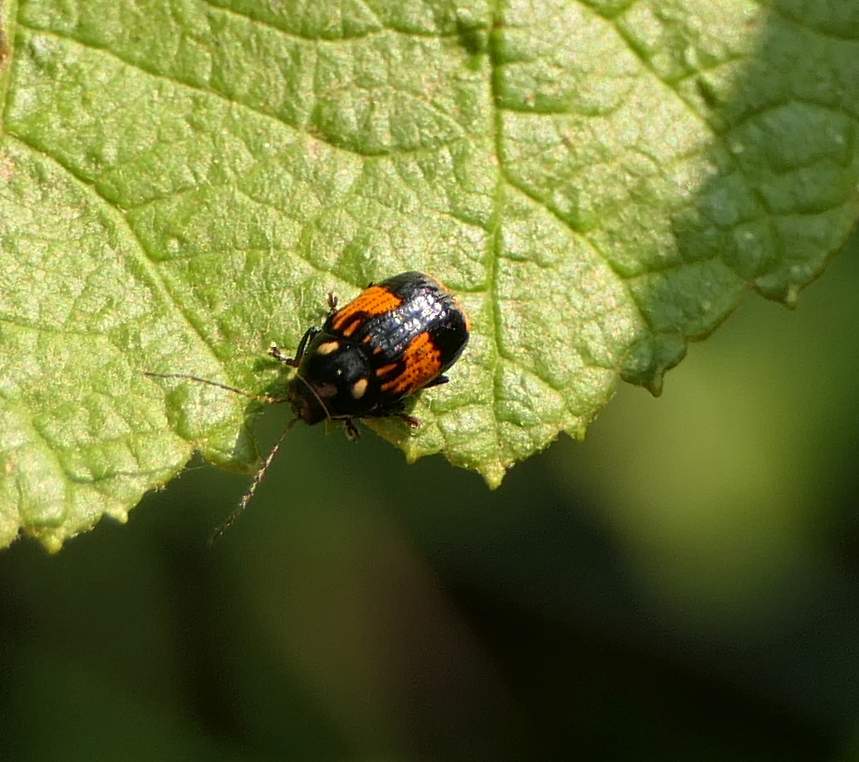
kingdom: Animalia
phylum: Arthropoda
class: Insecta
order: Coleoptera
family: Chrysomelidae
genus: Bassareus
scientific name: Bassareus mammifer
